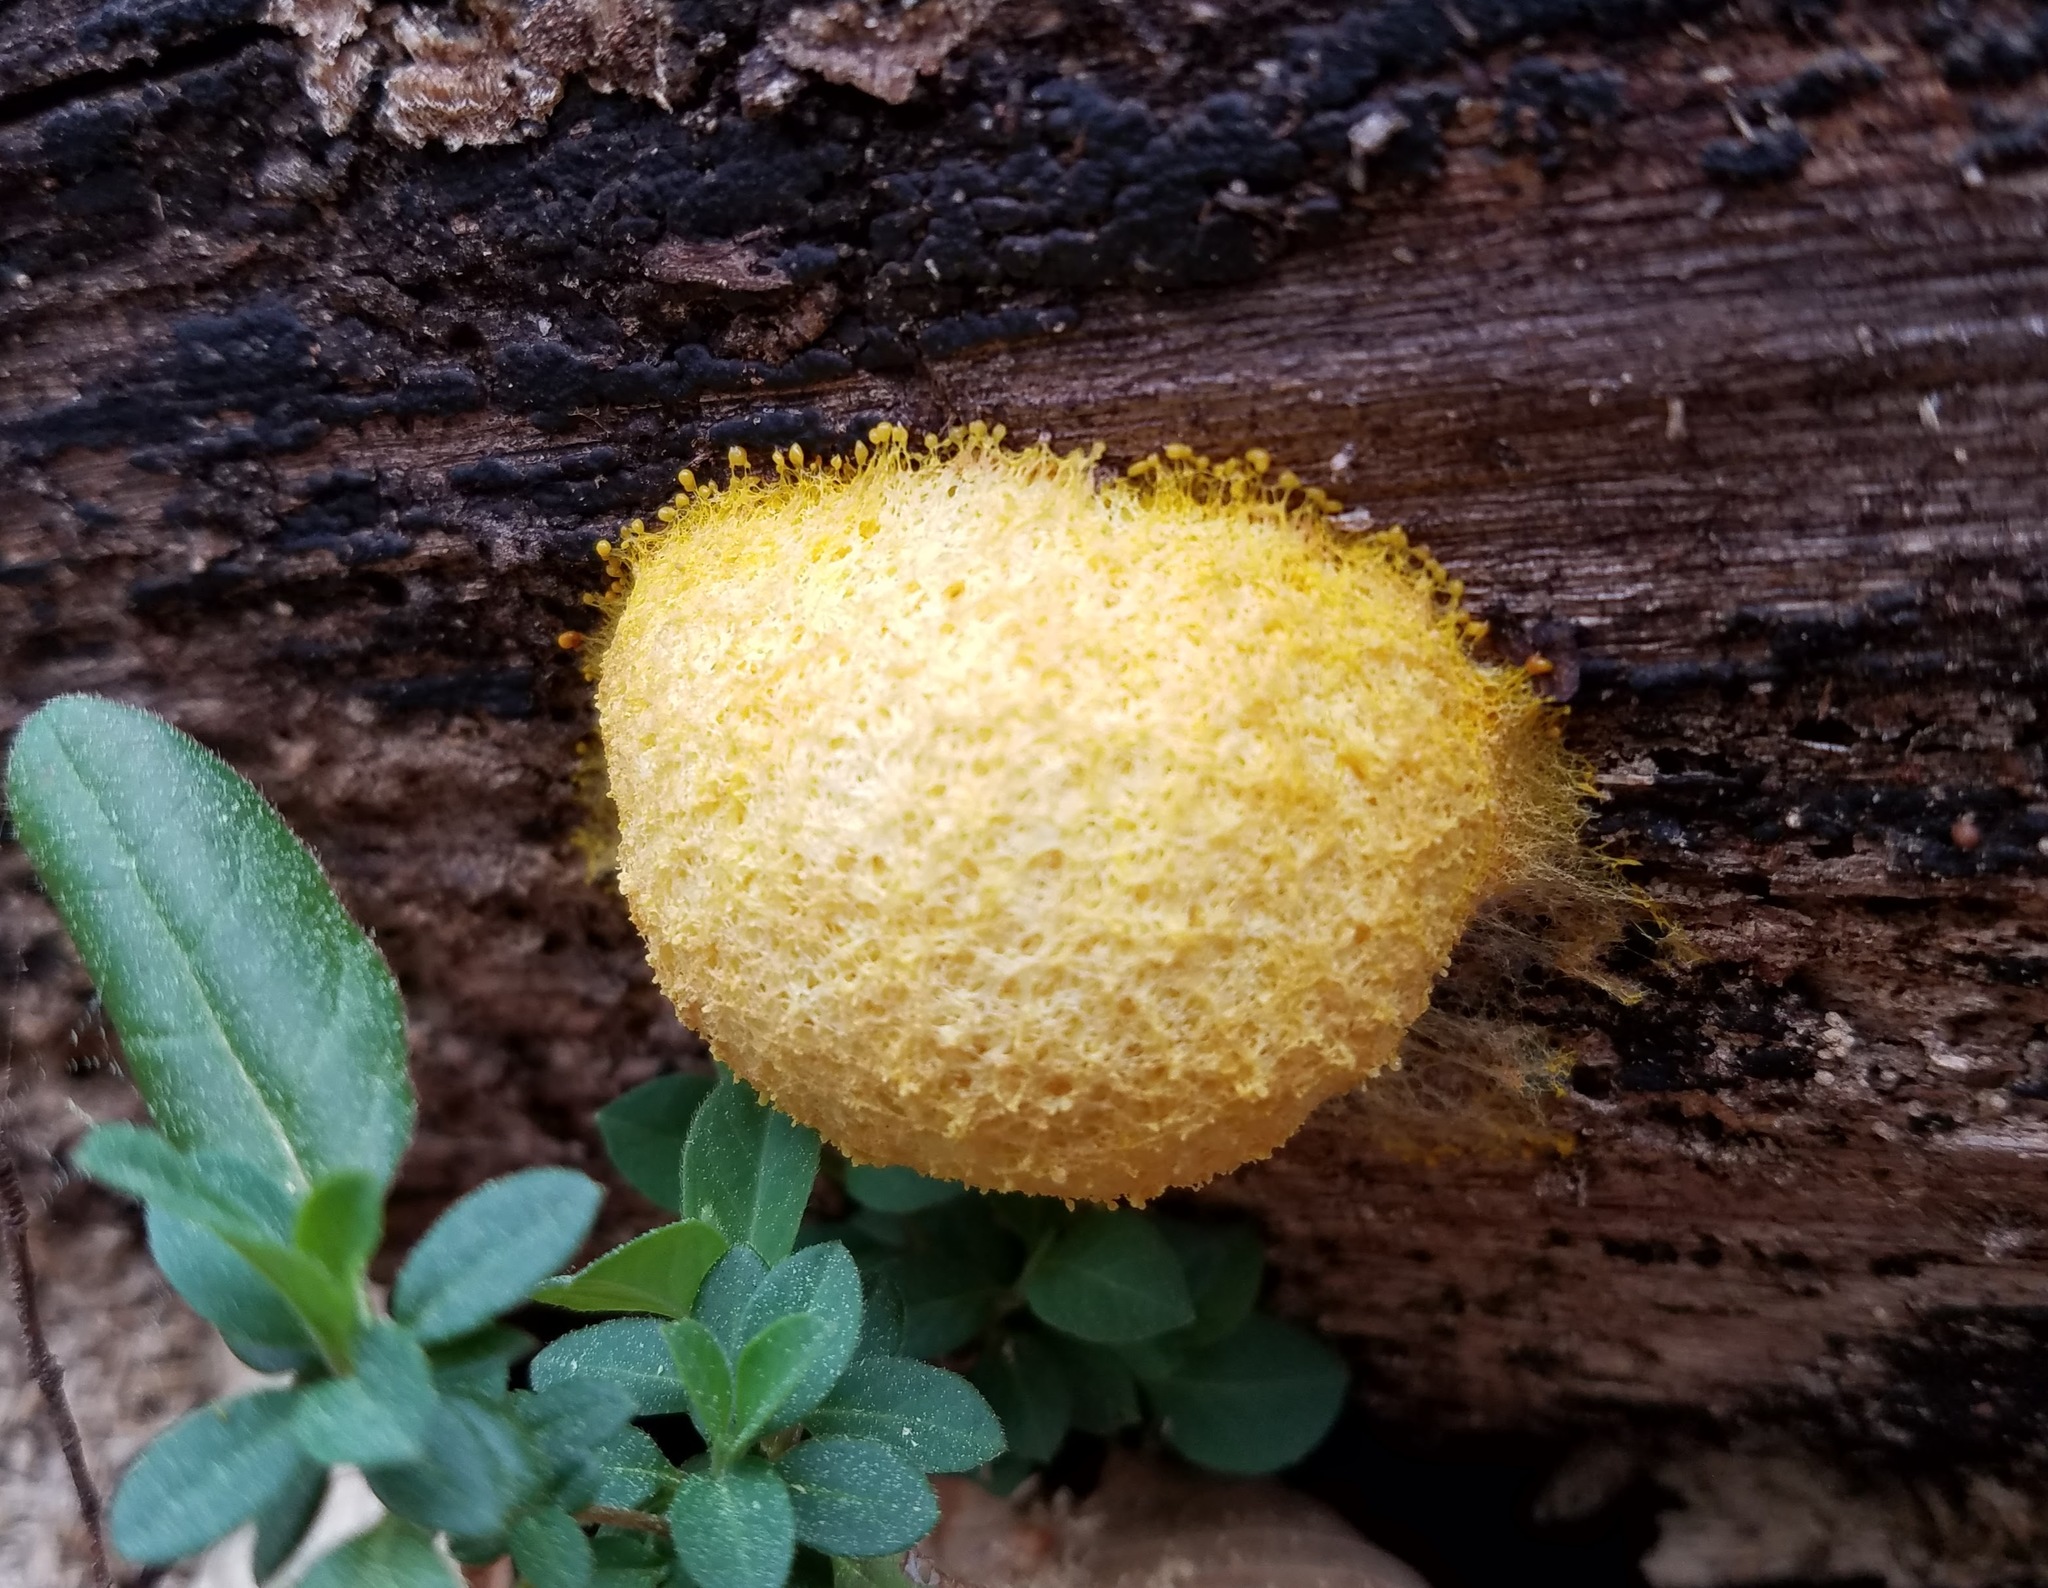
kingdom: Protozoa
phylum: Mycetozoa
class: Myxomycetes
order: Physarales
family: Physaraceae
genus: Fuligo
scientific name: Fuligo septica
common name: Dog vomit slime mold
